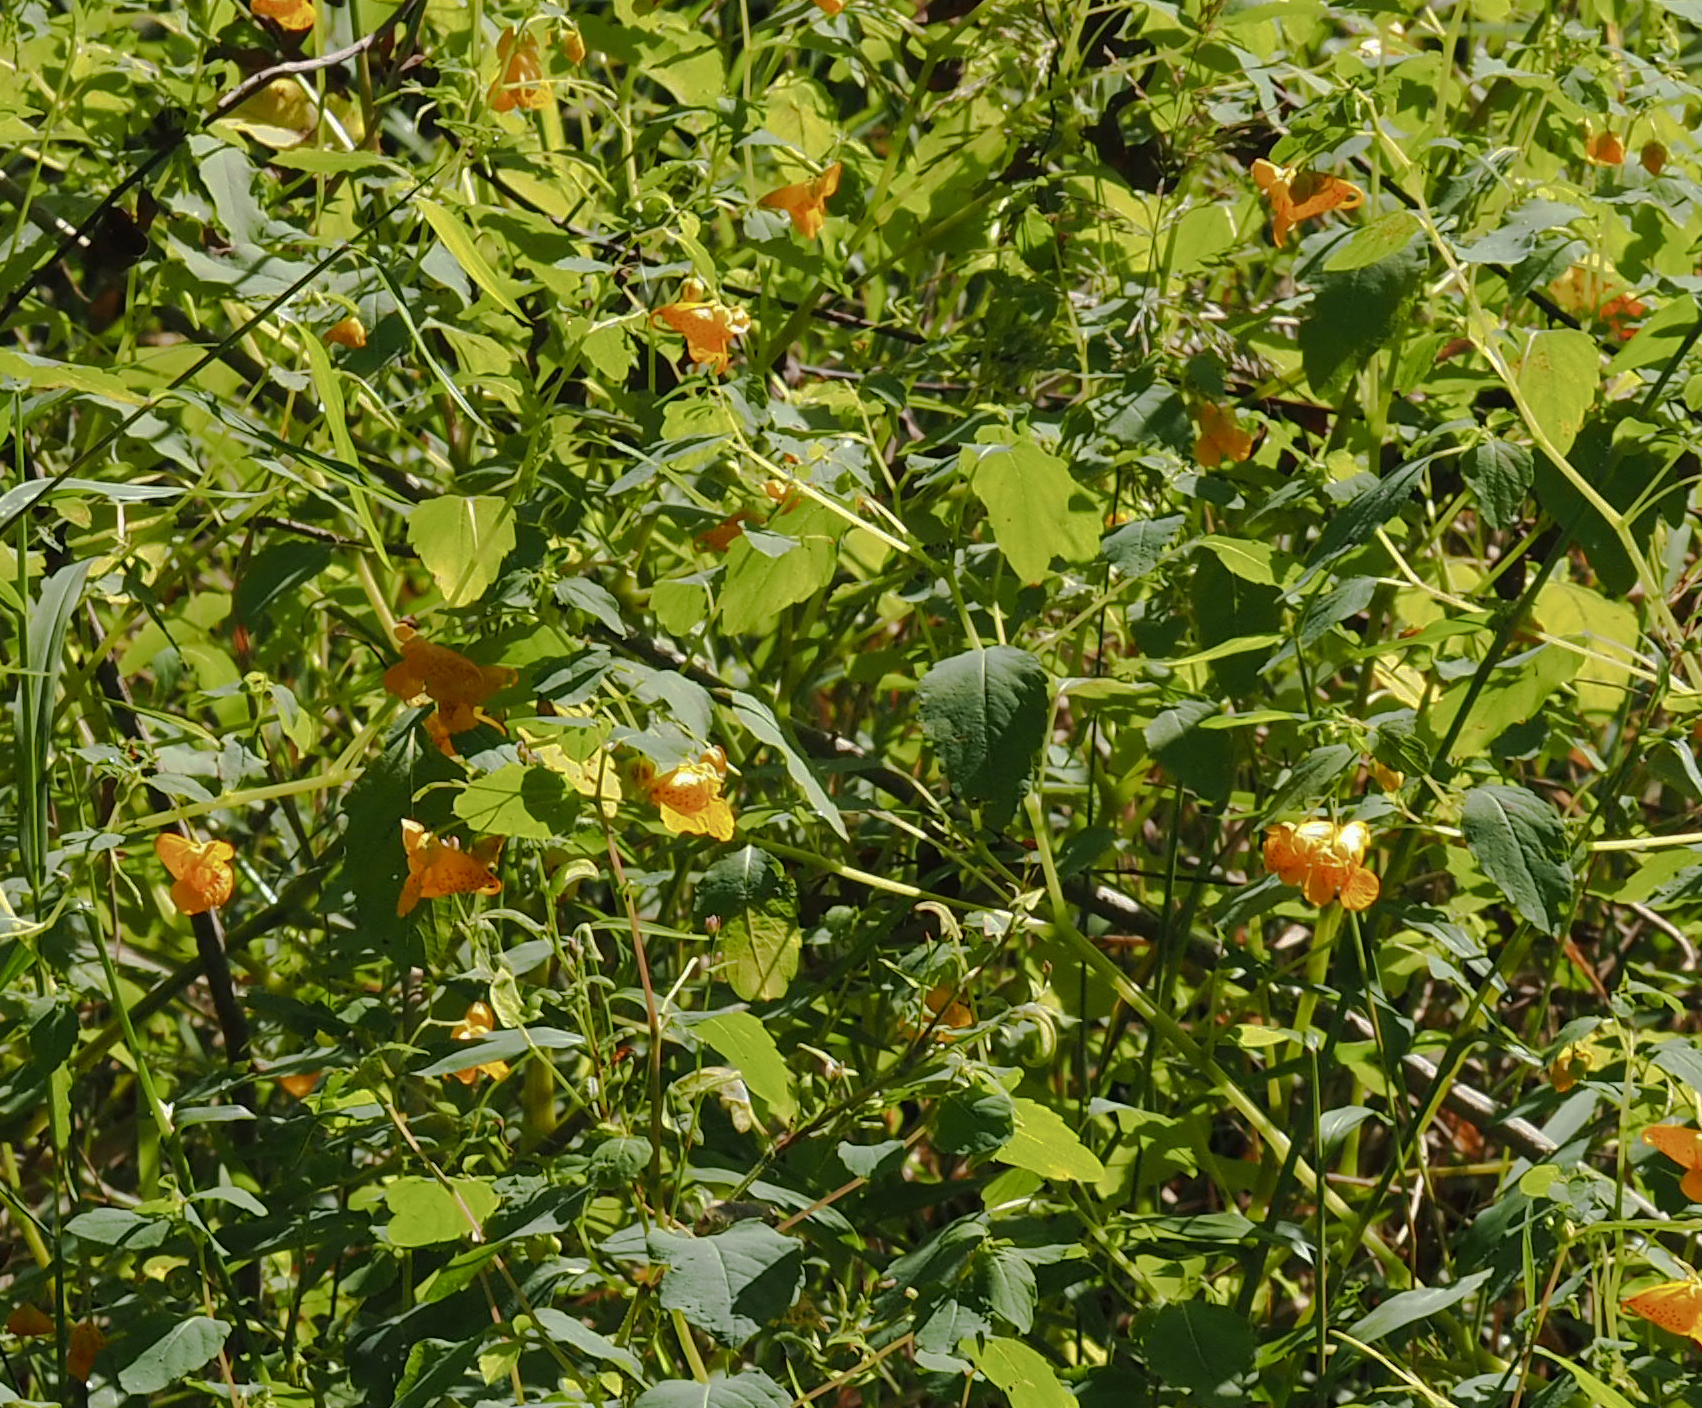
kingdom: Plantae
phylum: Tracheophyta
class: Magnoliopsida
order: Ericales
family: Balsaminaceae
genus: Impatiens
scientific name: Impatiens capensis
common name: Orange balsam
